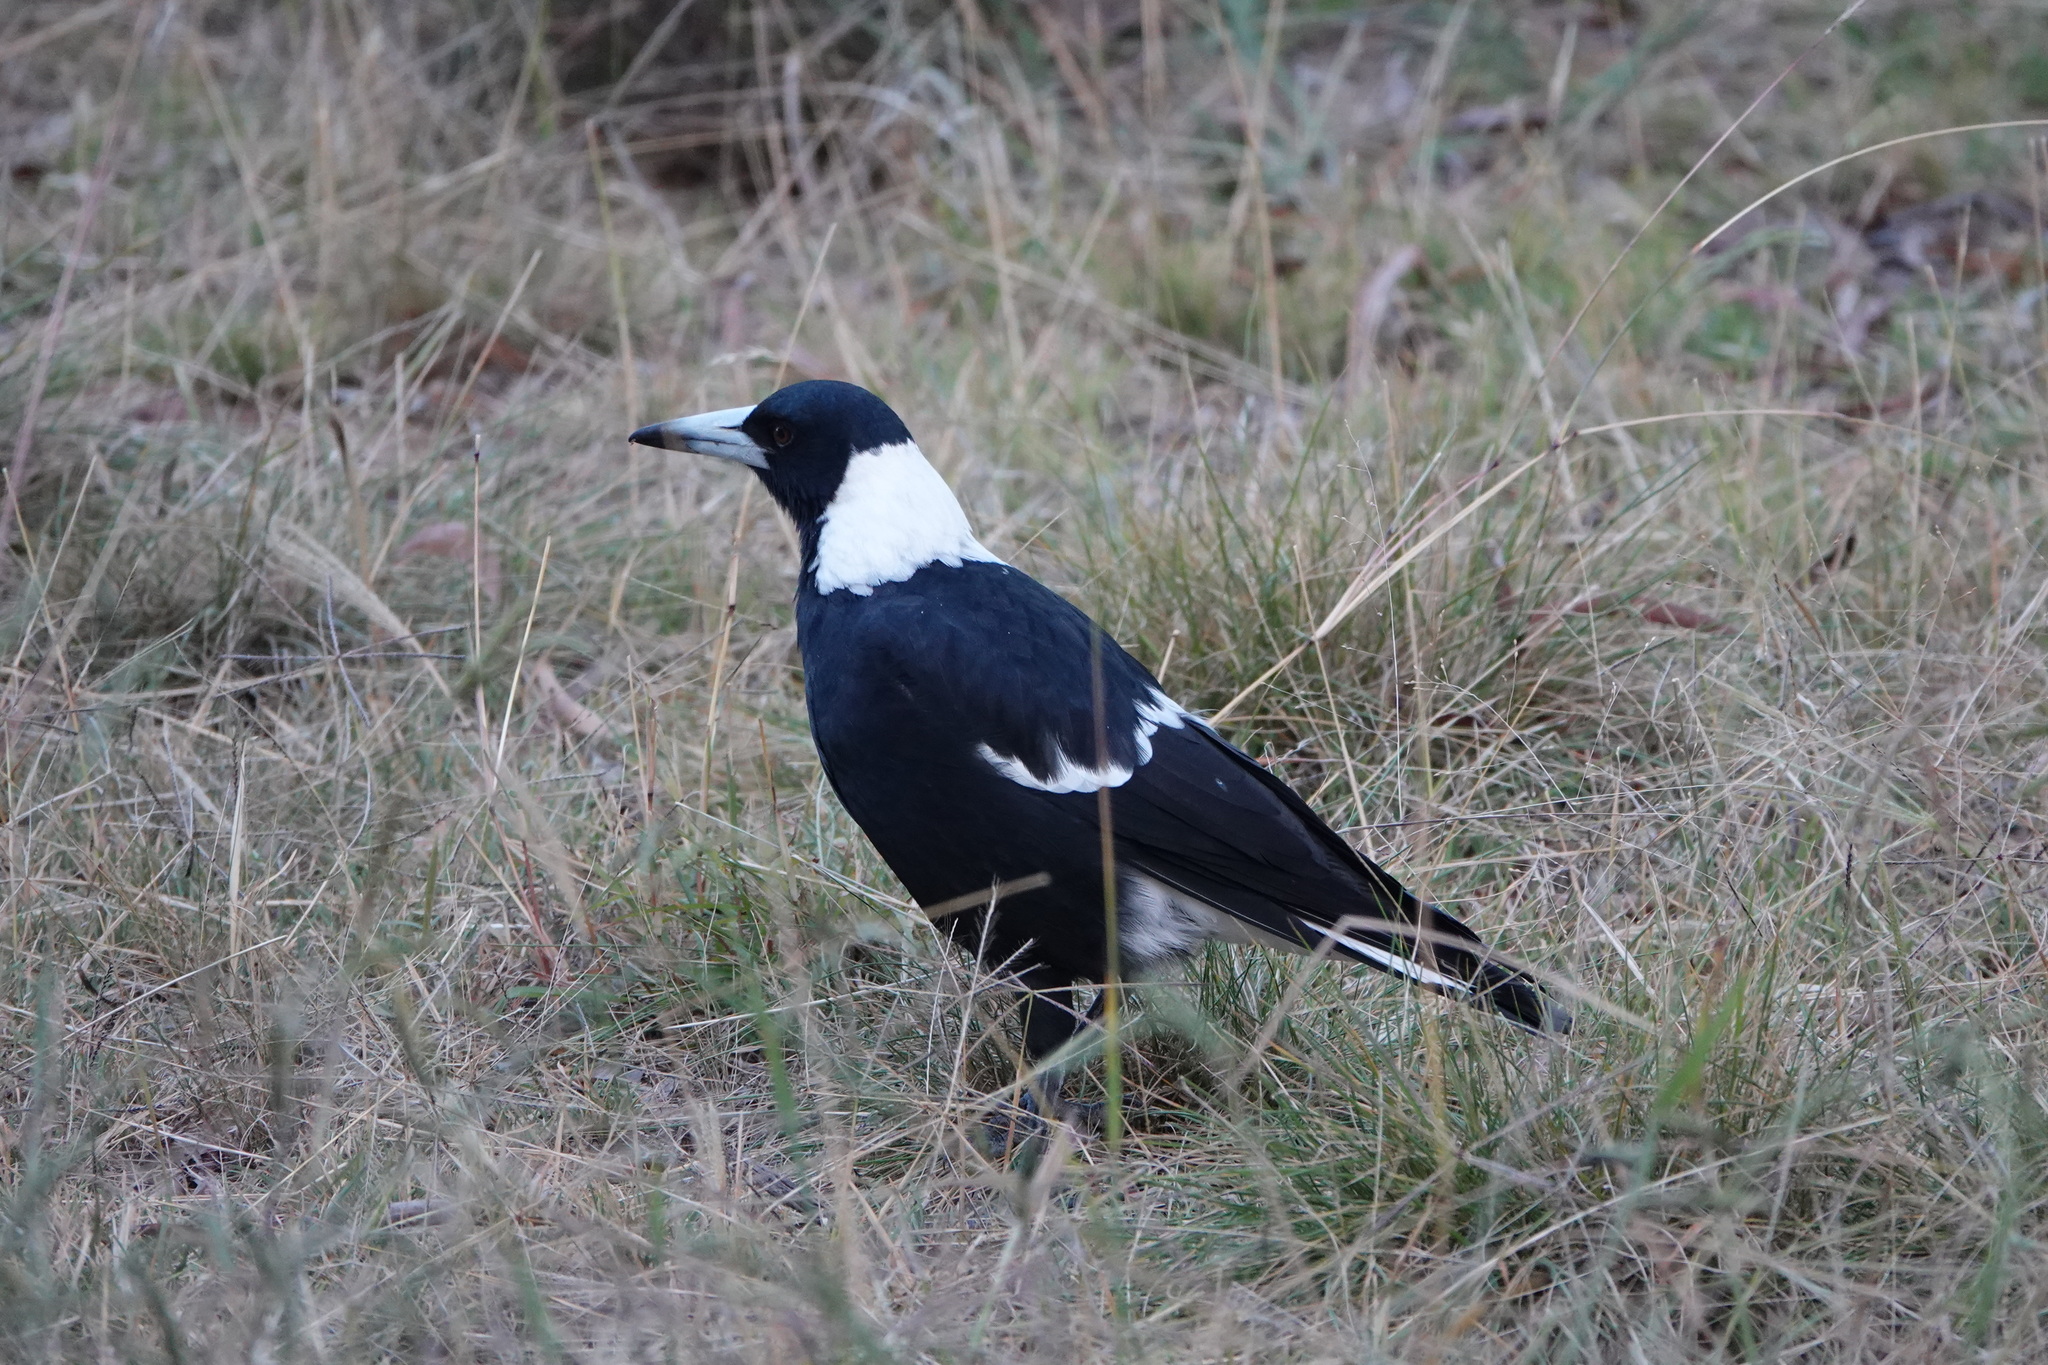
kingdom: Animalia
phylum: Chordata
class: Aves
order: Passeriformes
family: Cracticidae
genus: Gymnorhina
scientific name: Gymnorhina tibicen
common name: Australian magpie
